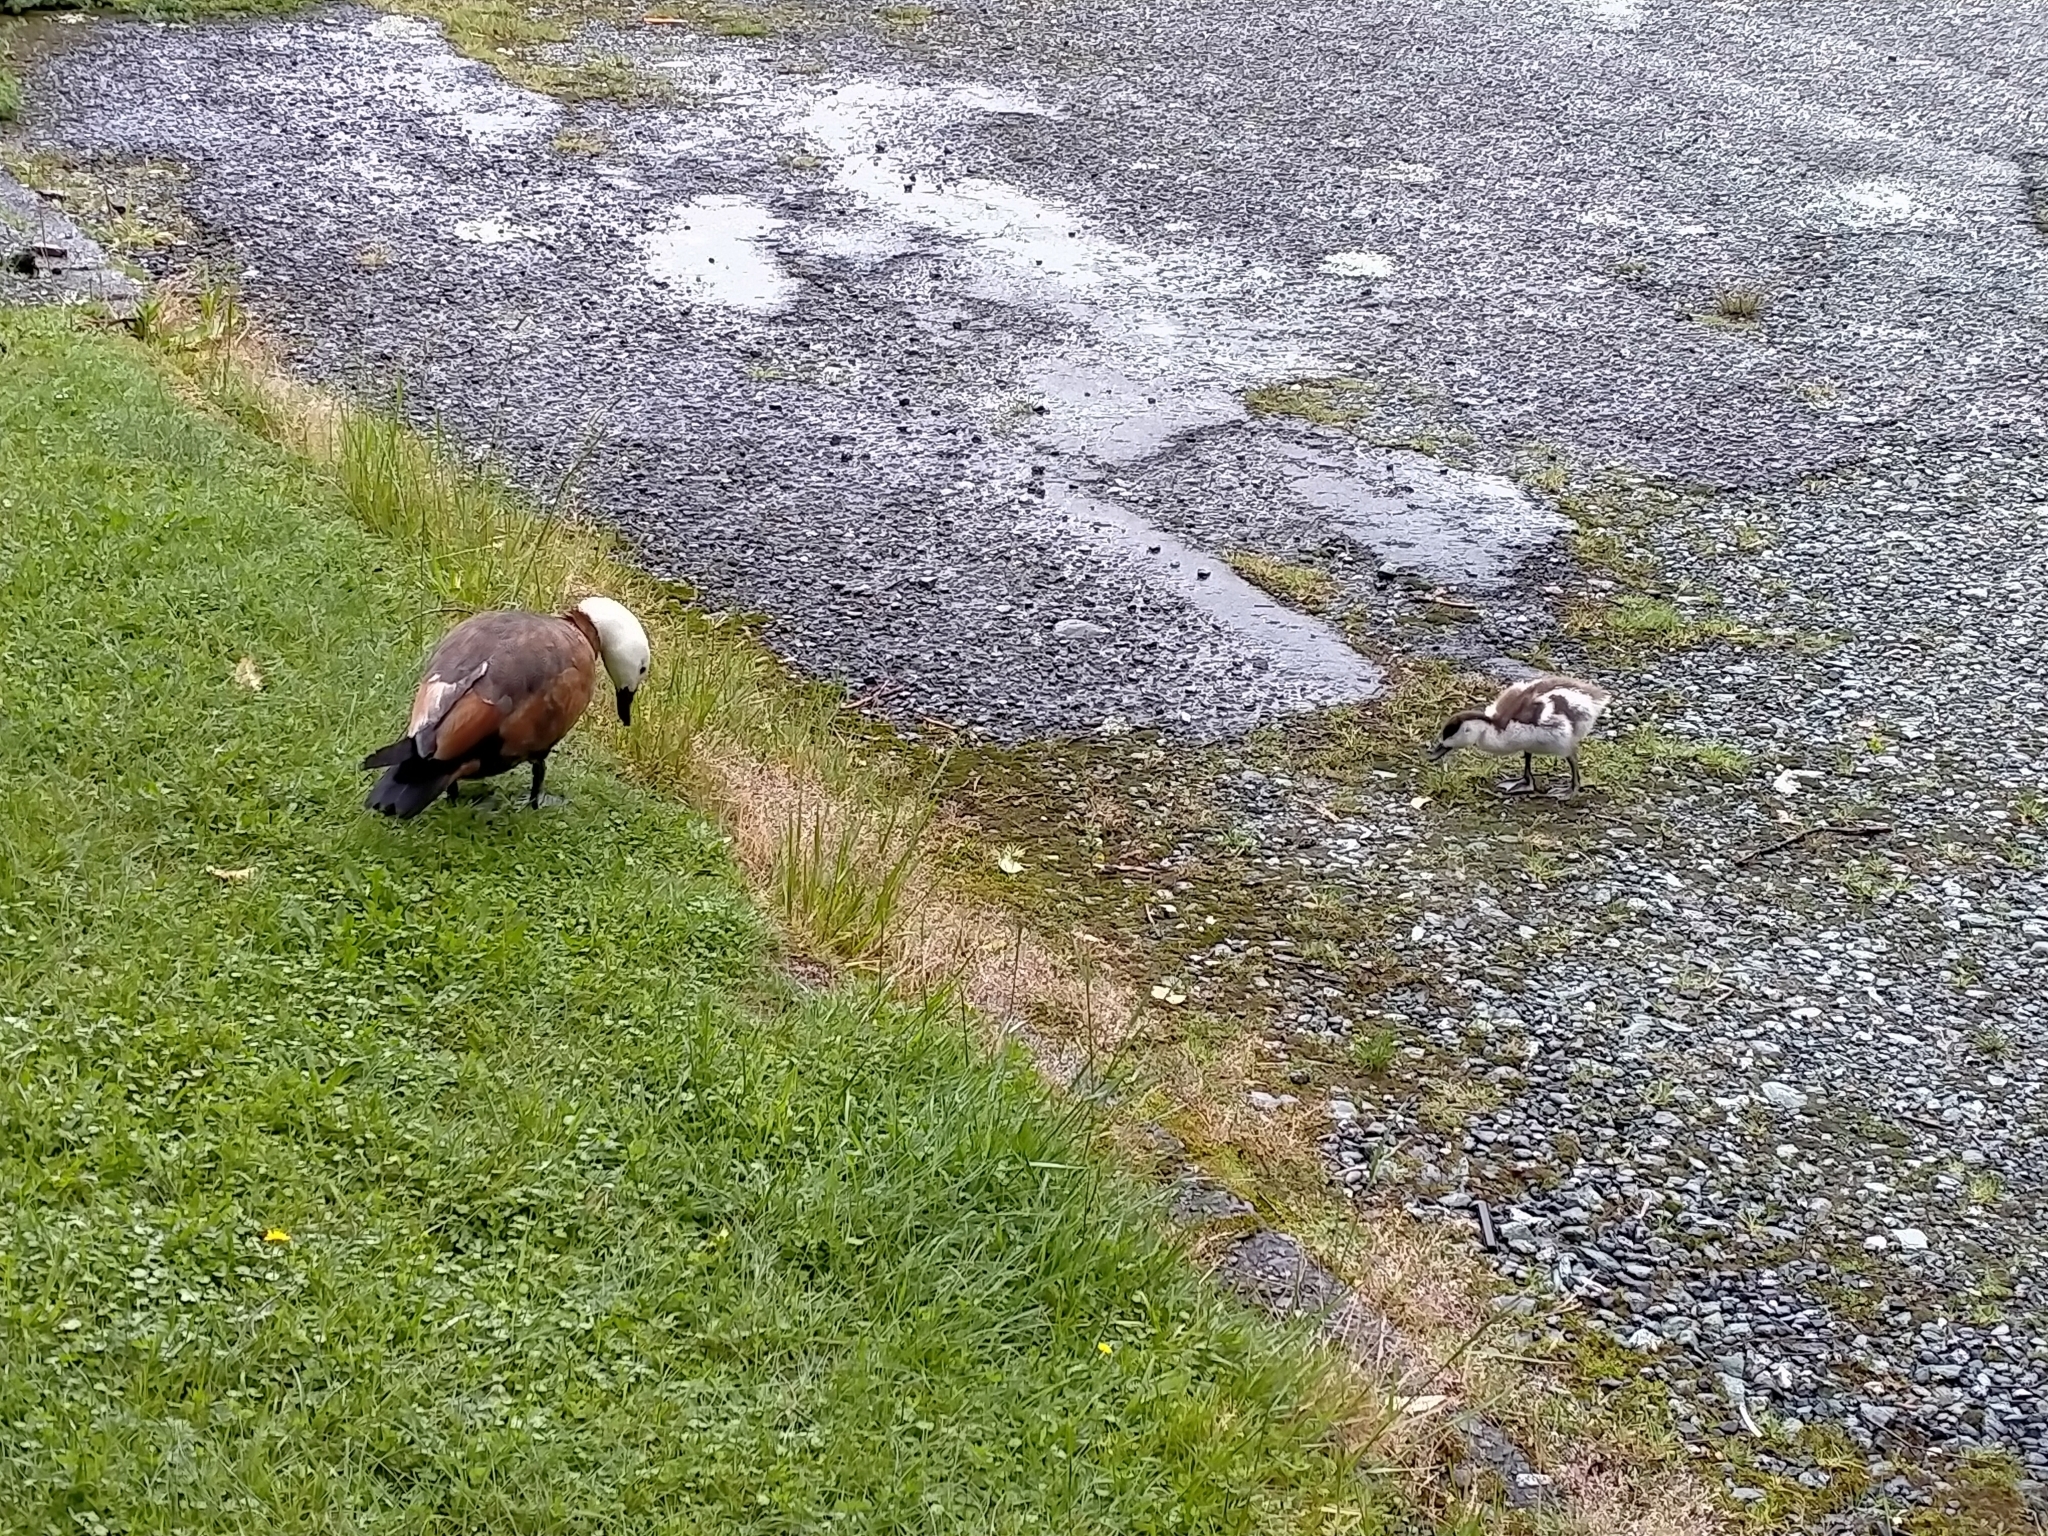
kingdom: Animalia
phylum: Chordata
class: Aves
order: Anseriformes
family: Anatidae
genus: Tadorna
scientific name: Tadorna variegata
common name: Paradise shelduck
